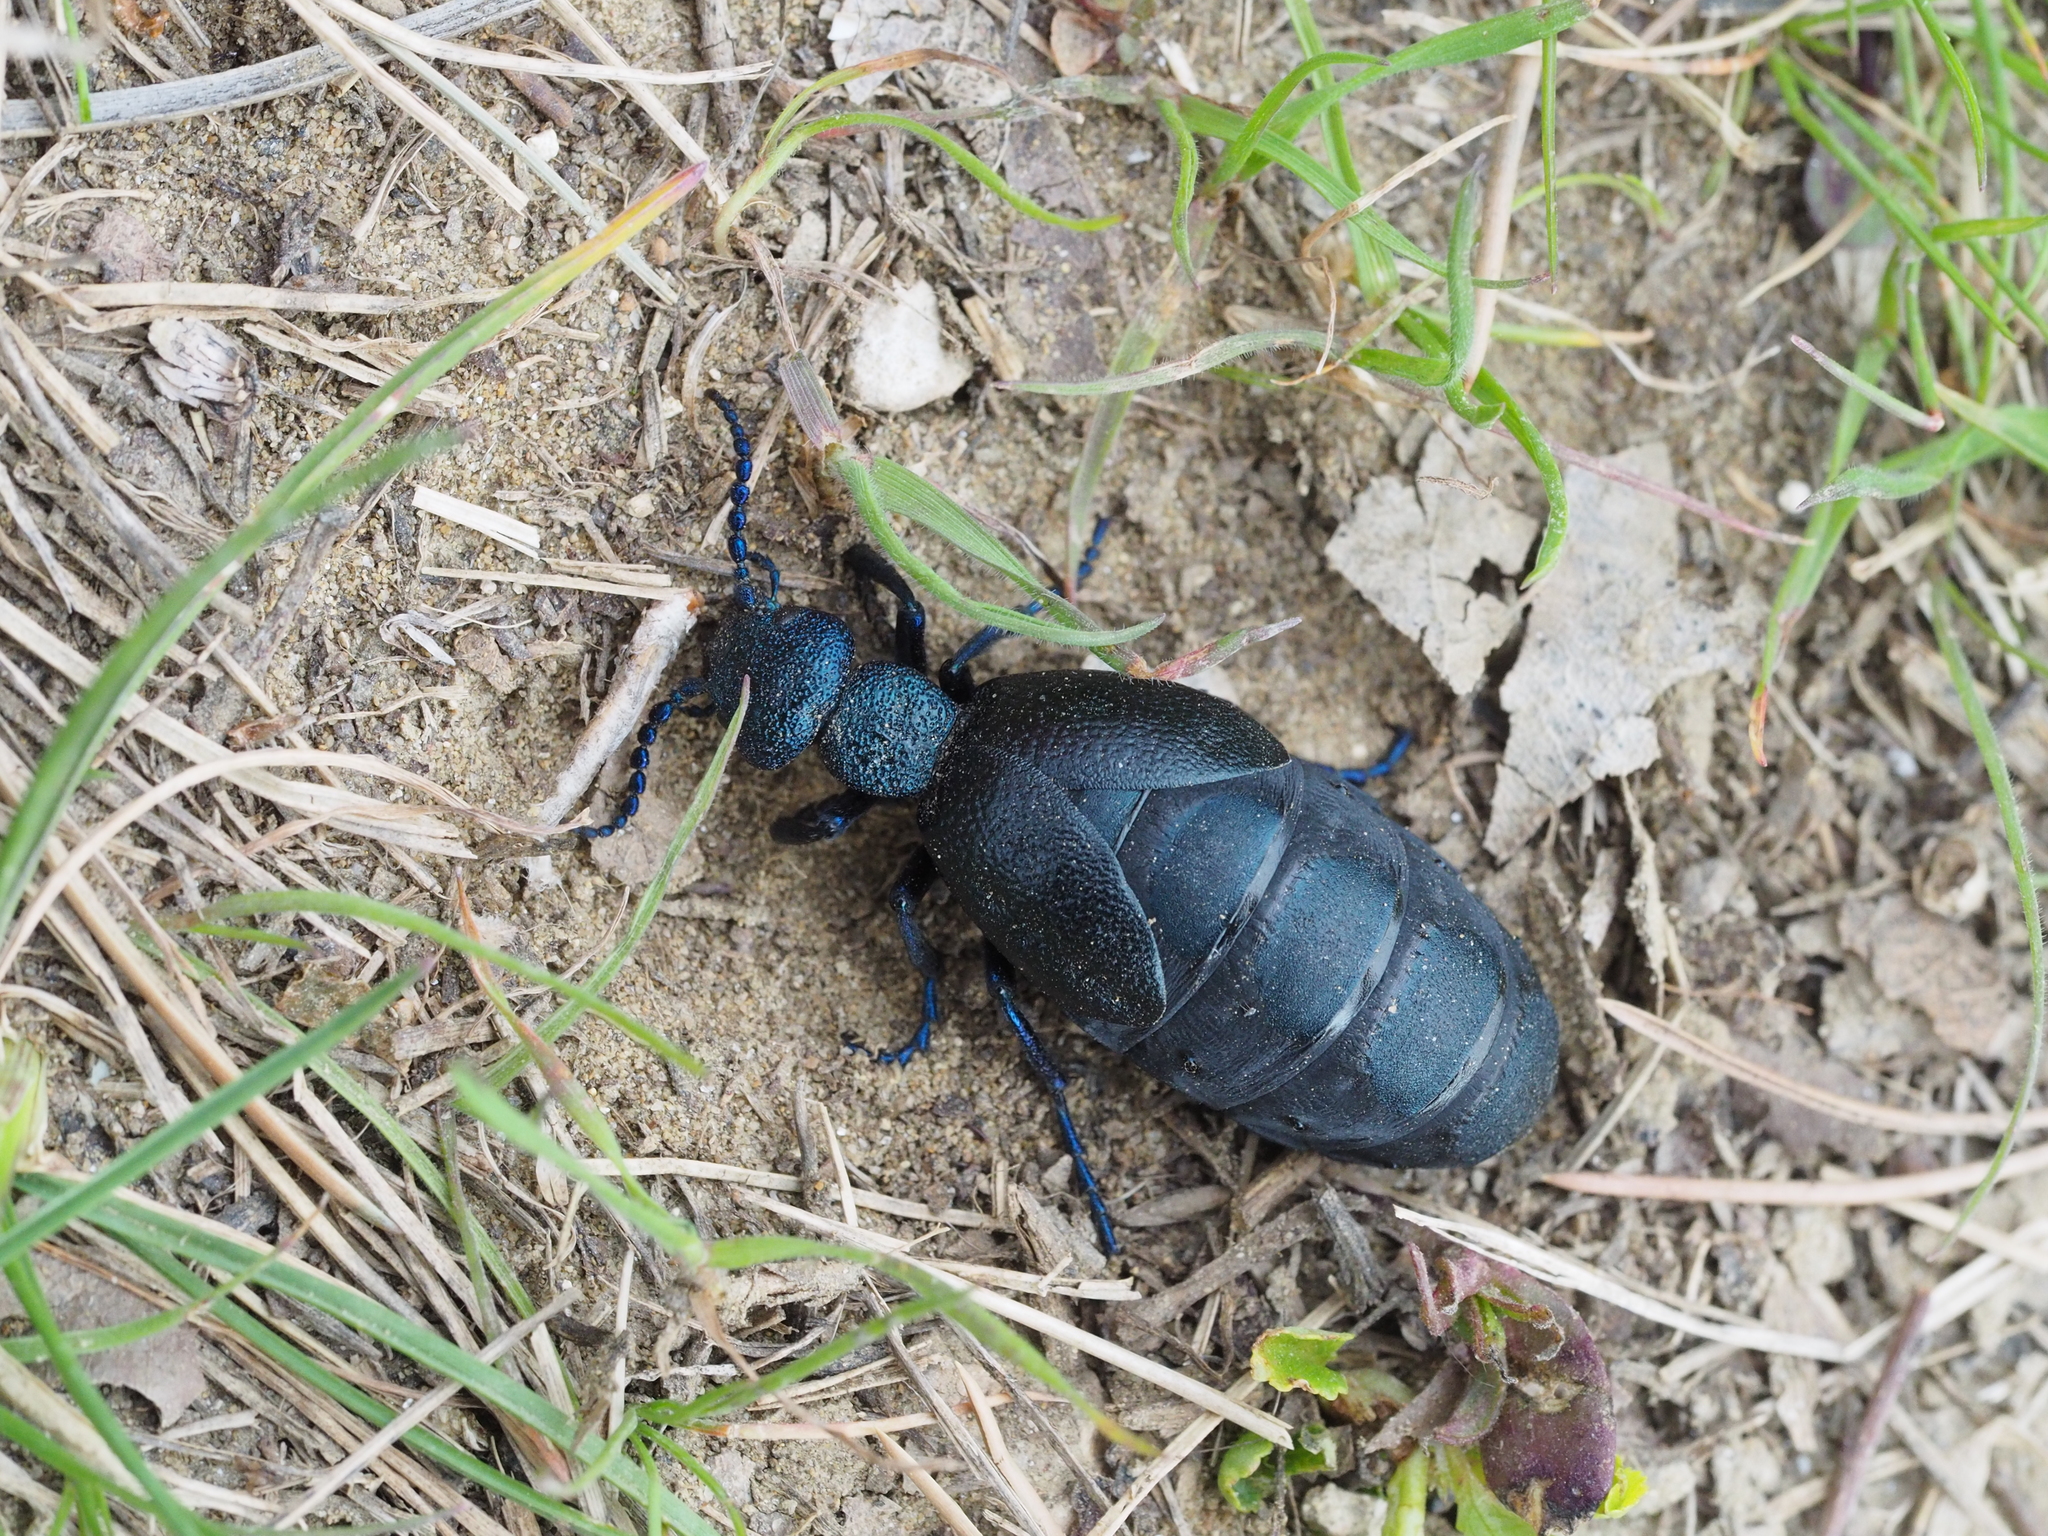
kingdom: Animalia
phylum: Arthropoda
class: Insecta
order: Coleoptera
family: Meloidae
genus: Meloe
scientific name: Meloe proscarabaeus
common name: Black oil-beetle
